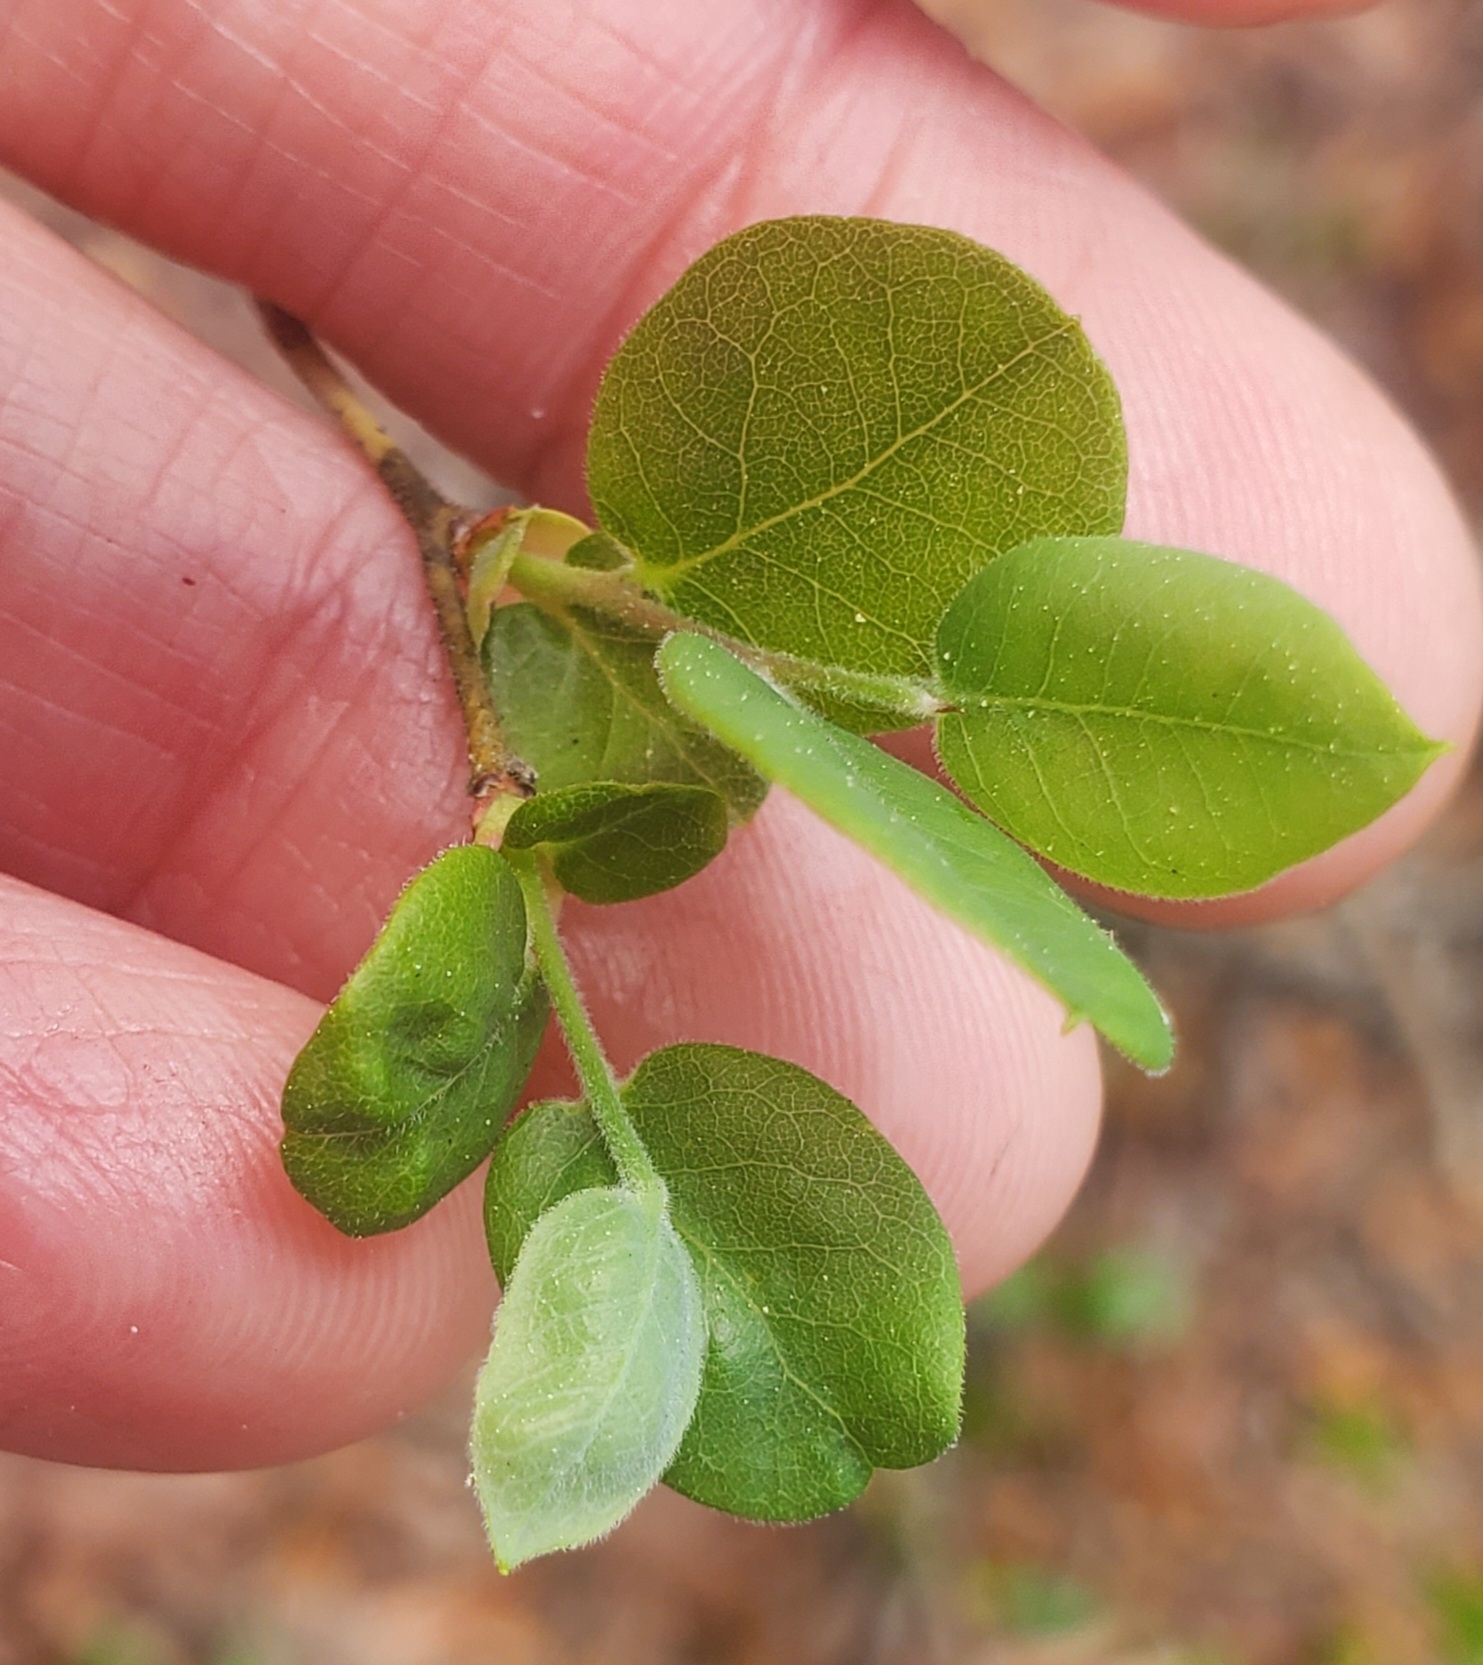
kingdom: Plantae
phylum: Tracheophyta
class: Magnoliopsida
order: Ericales
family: Ericaceae
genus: Vaccinium
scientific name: Vaccinium stamineum
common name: Deerberry
